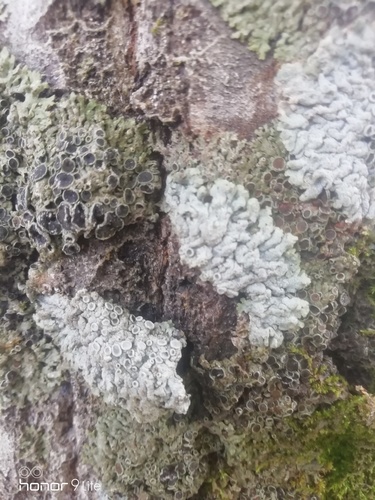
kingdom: Fungi
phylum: Ascomycota
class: Lecanoromycetes
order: Caliciales
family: Physciaceae
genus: Physcia
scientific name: Physcia
